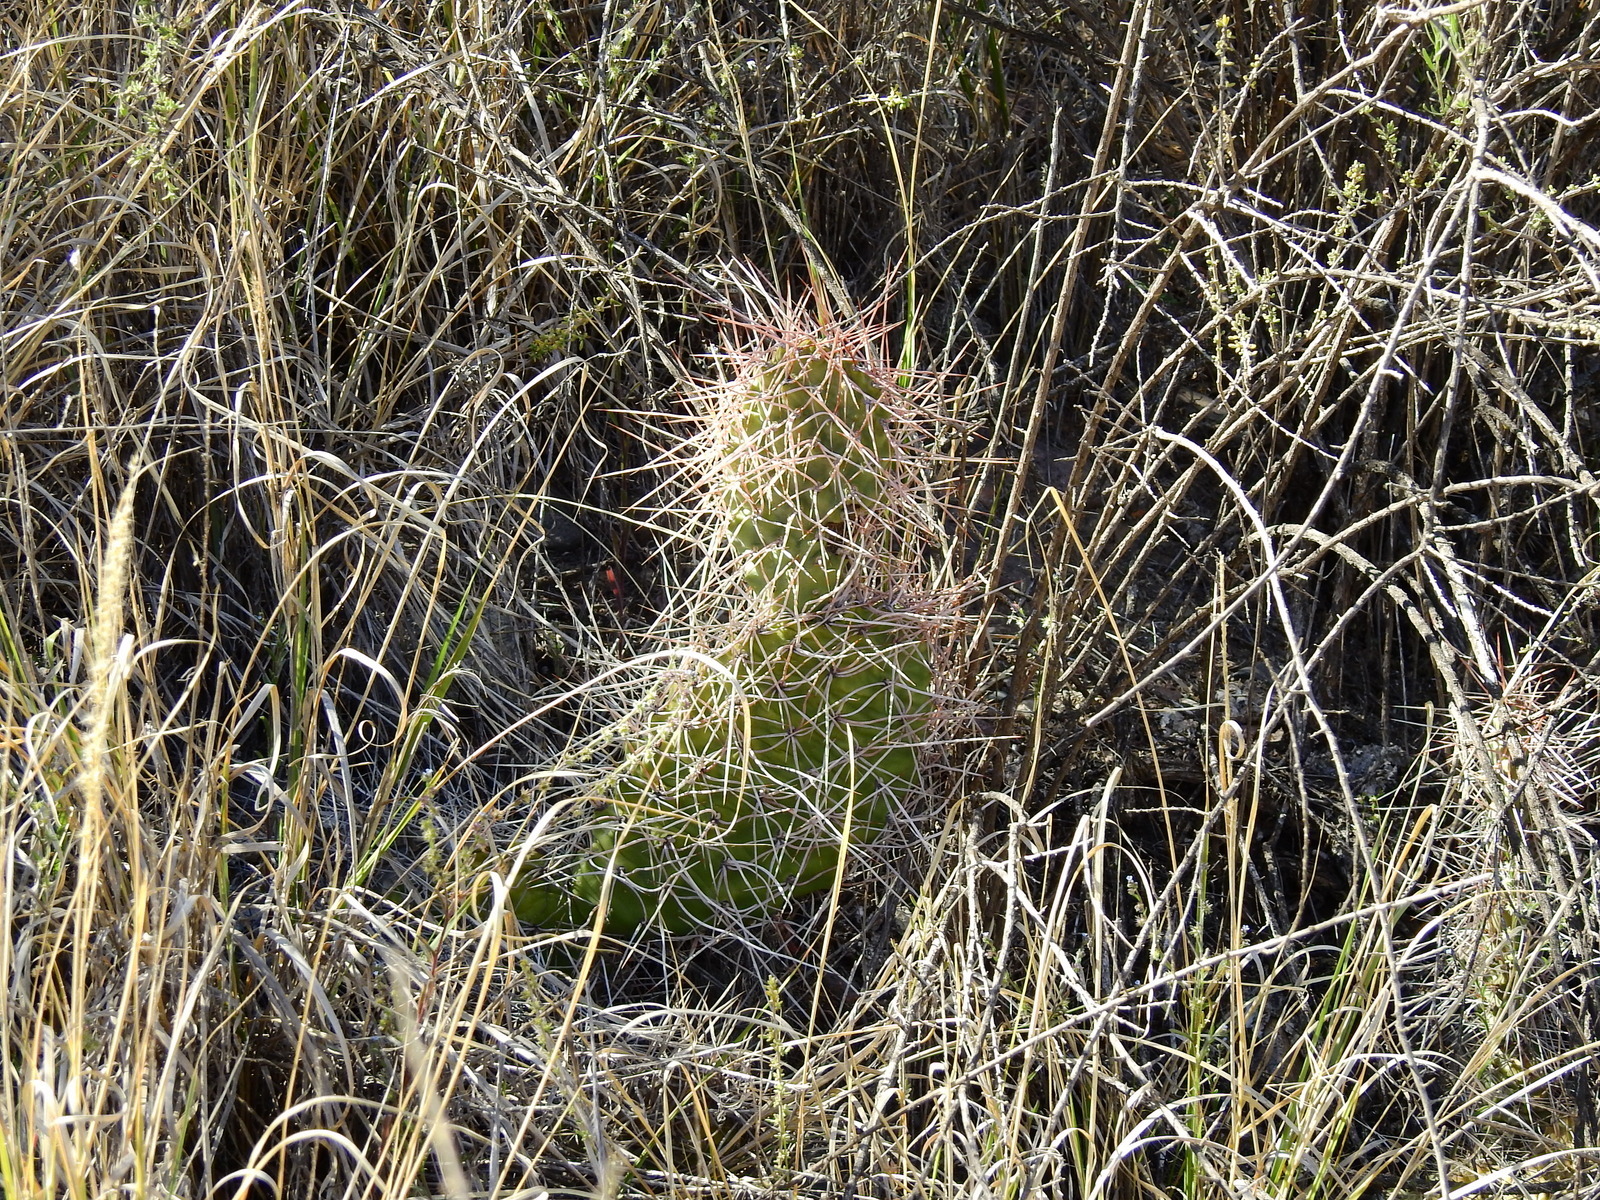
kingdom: Plantae
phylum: Tracheophyta
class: Magnoliopsida
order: Caryophyllales
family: Cactaceae
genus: Opuntia
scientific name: Opuntia sulphurea
